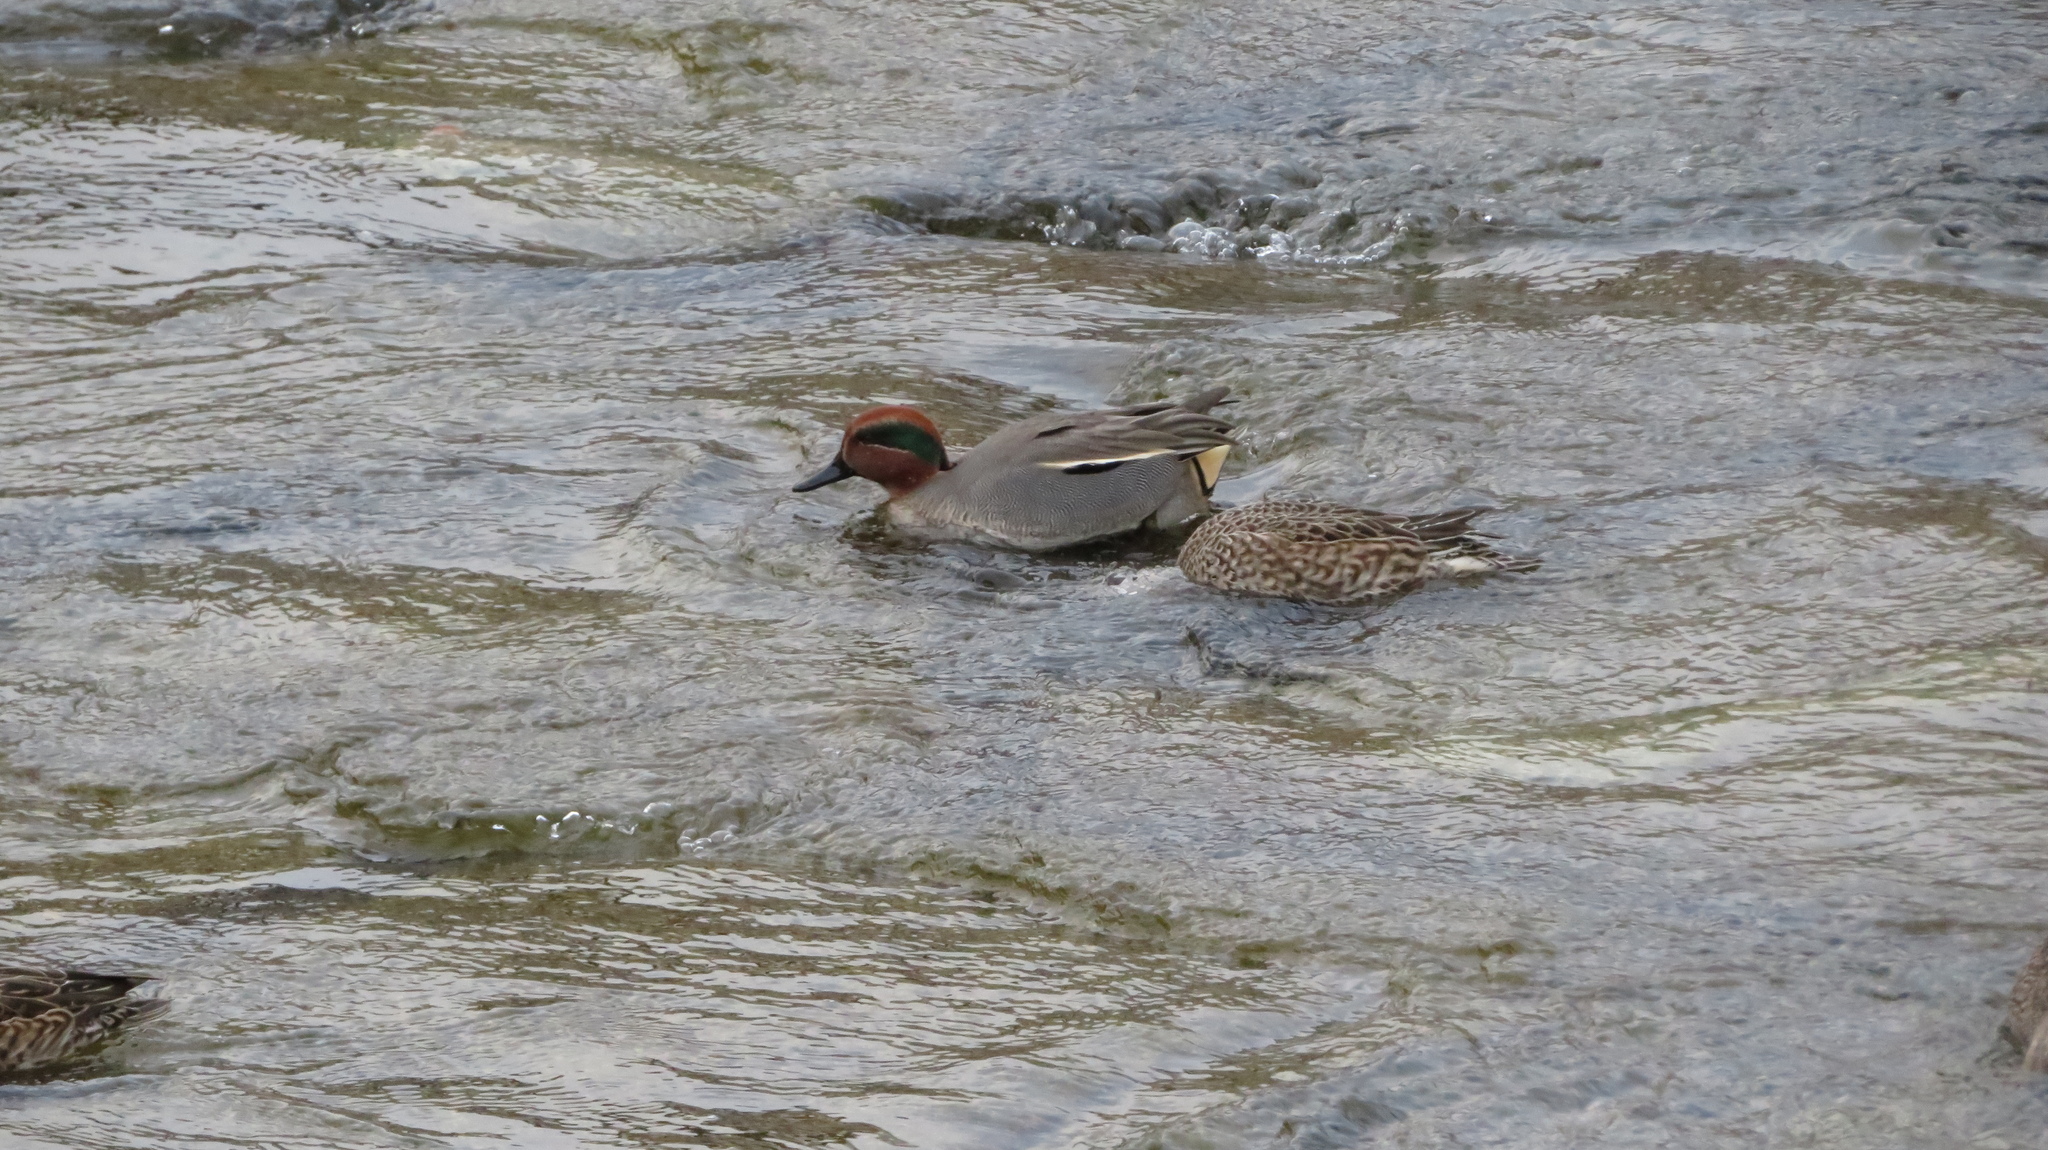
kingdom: Animalia
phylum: Chordata
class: Aves
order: Anseriformes
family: Anatidae
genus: Anas
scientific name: Anas crecca
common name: Eurasian teal
